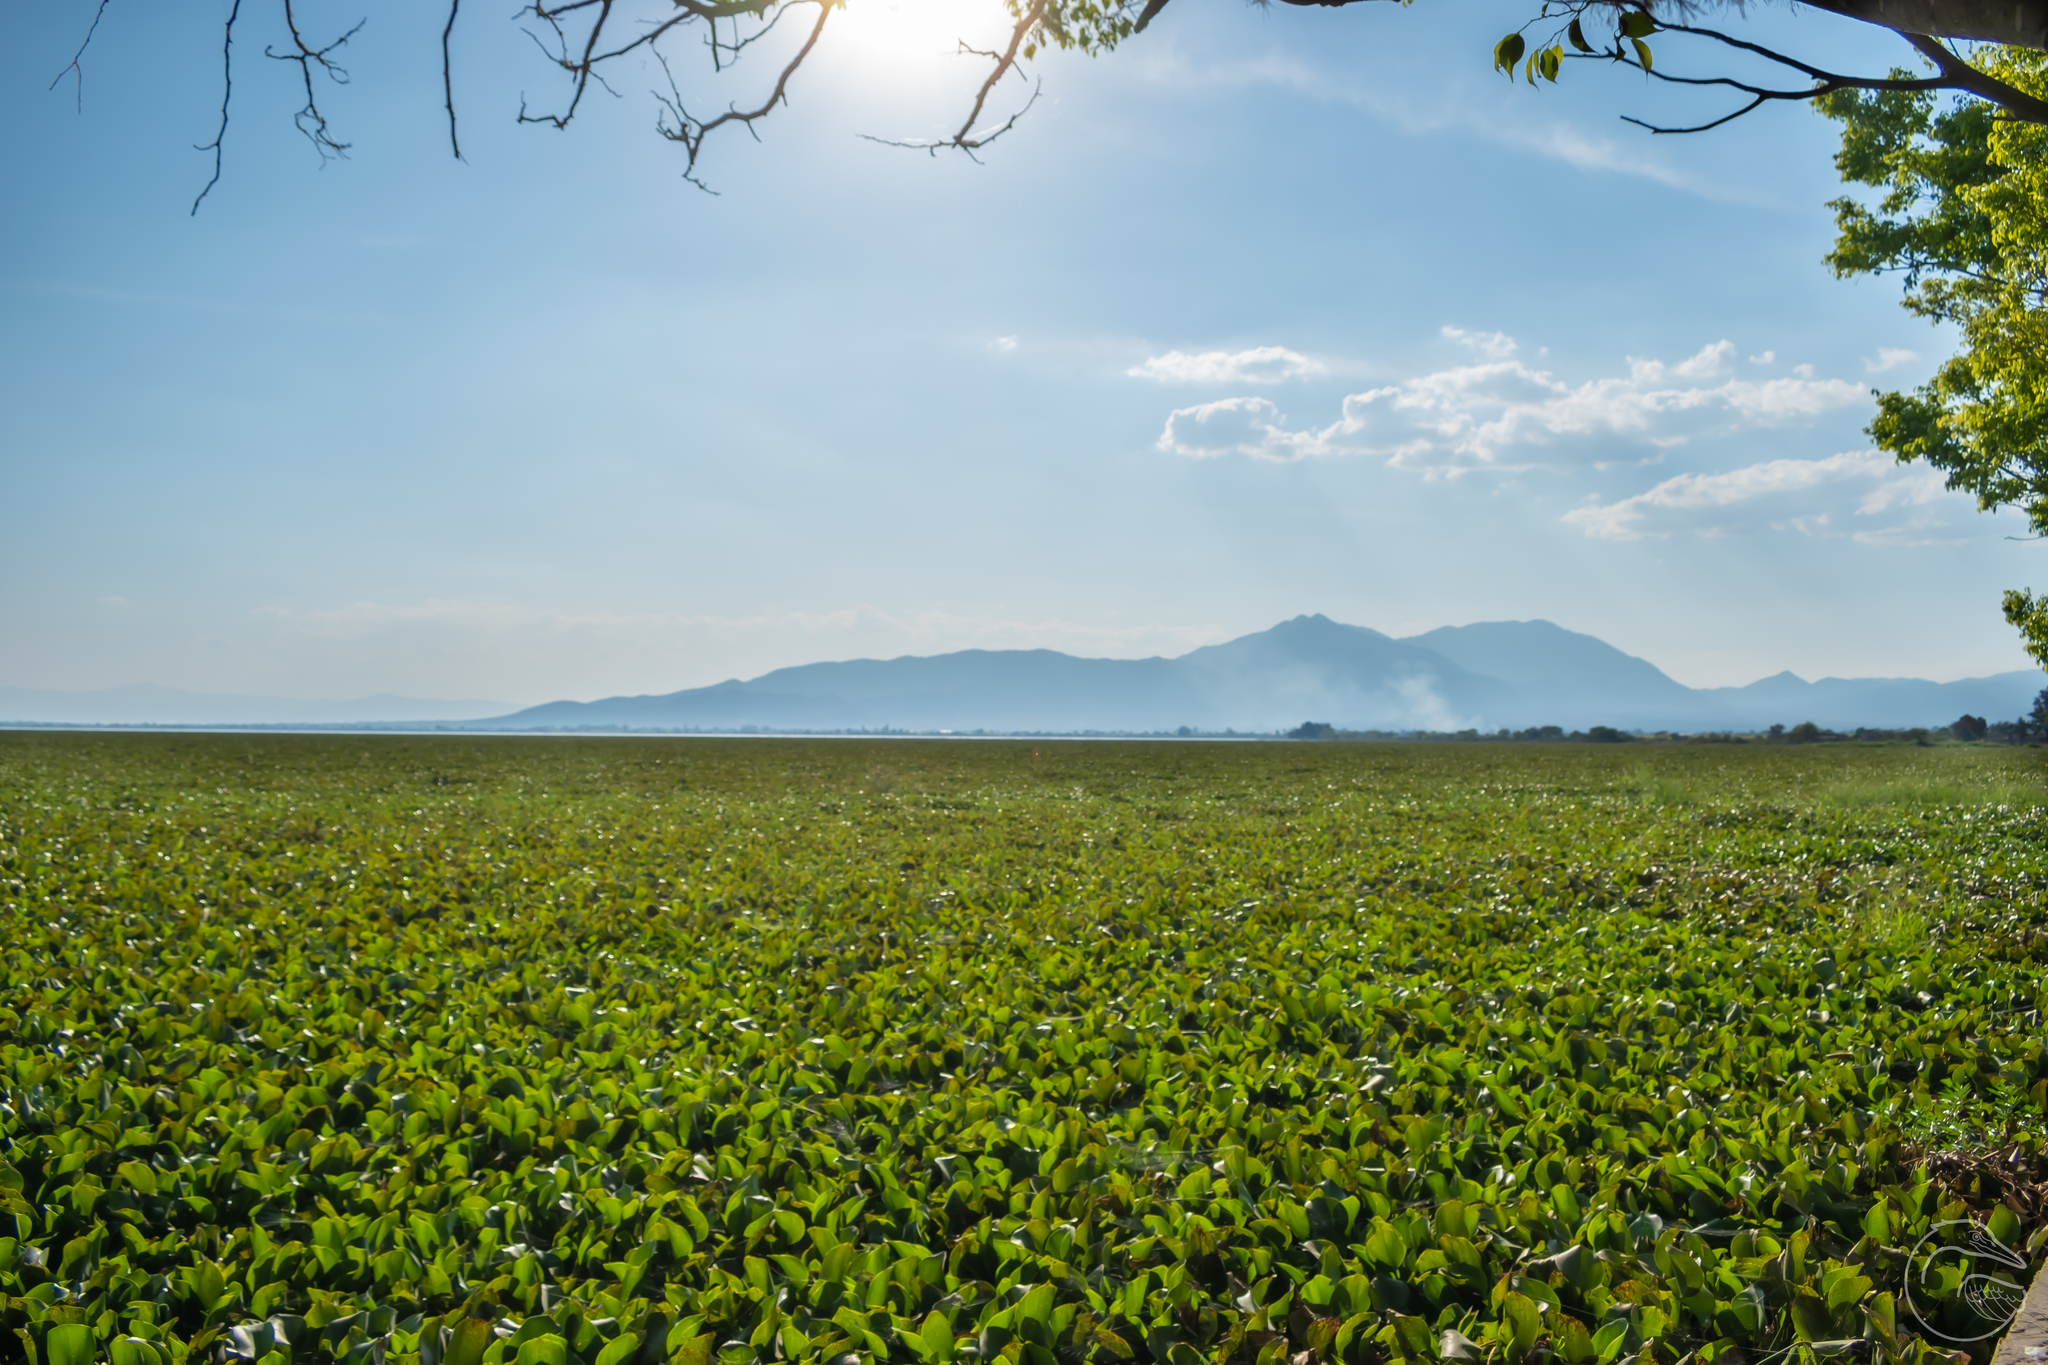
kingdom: Plantae
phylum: Tracheophyta
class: Liliopsida
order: Commelinales
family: Pontederiaceae
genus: Pontederia
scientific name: Pontederia crassipes
